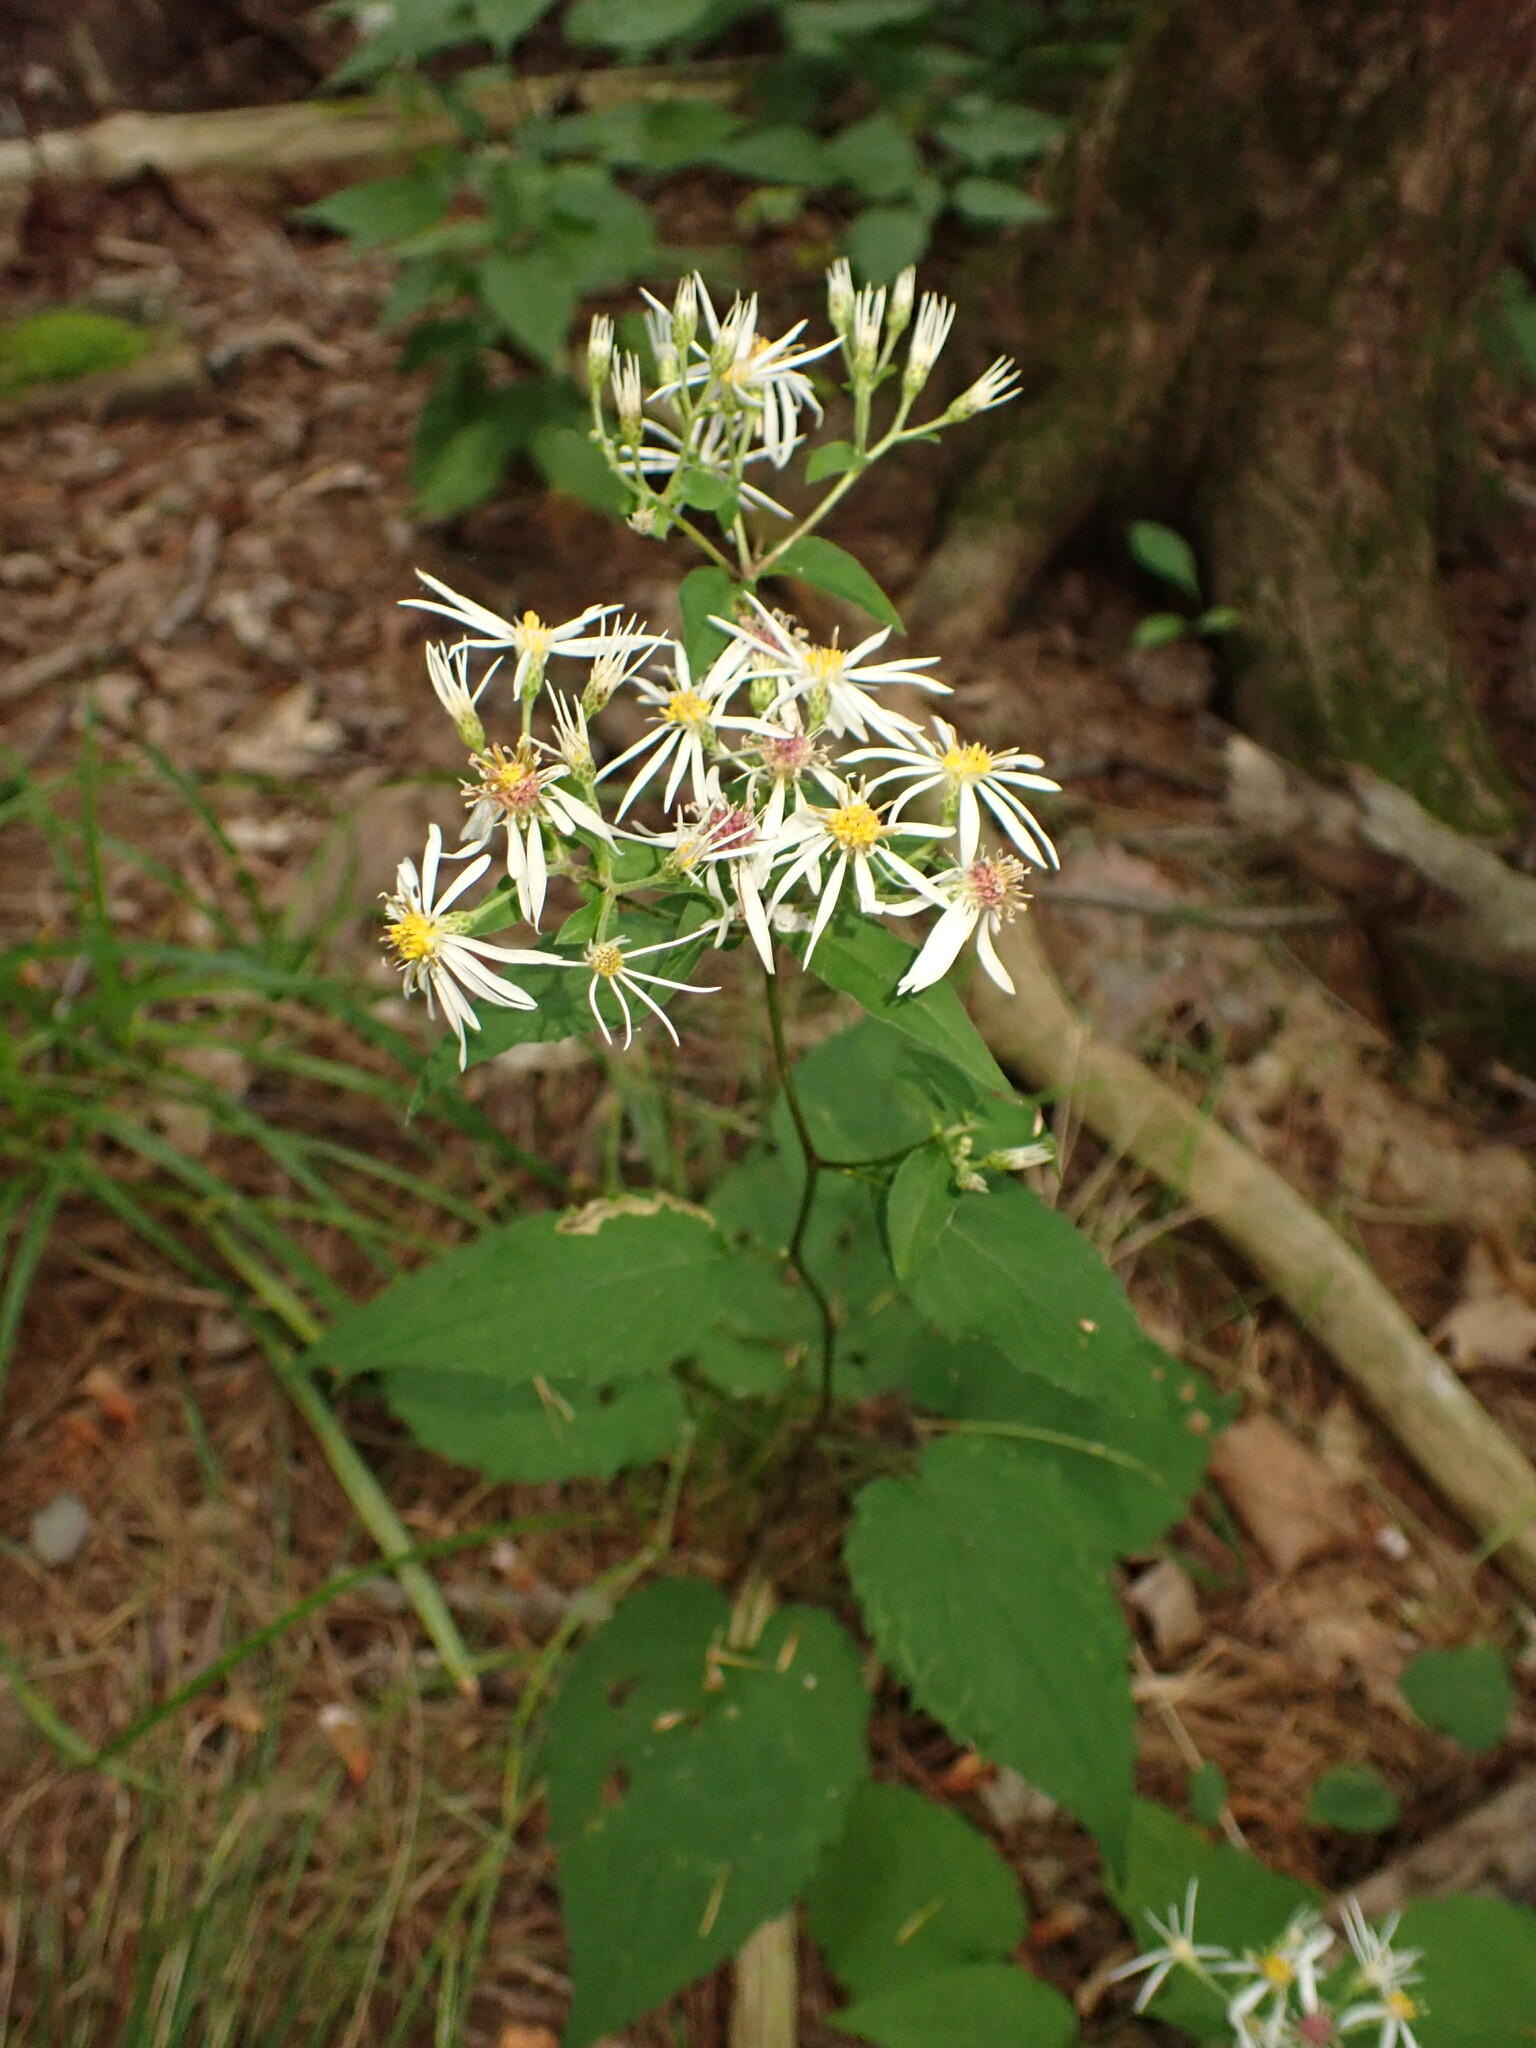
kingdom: Plantae
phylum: Tracheophyta
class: Magnoliopsida
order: Asterales
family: Asteraceae
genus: Eurybia
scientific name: Eurybia divaricata
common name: White wood aster
